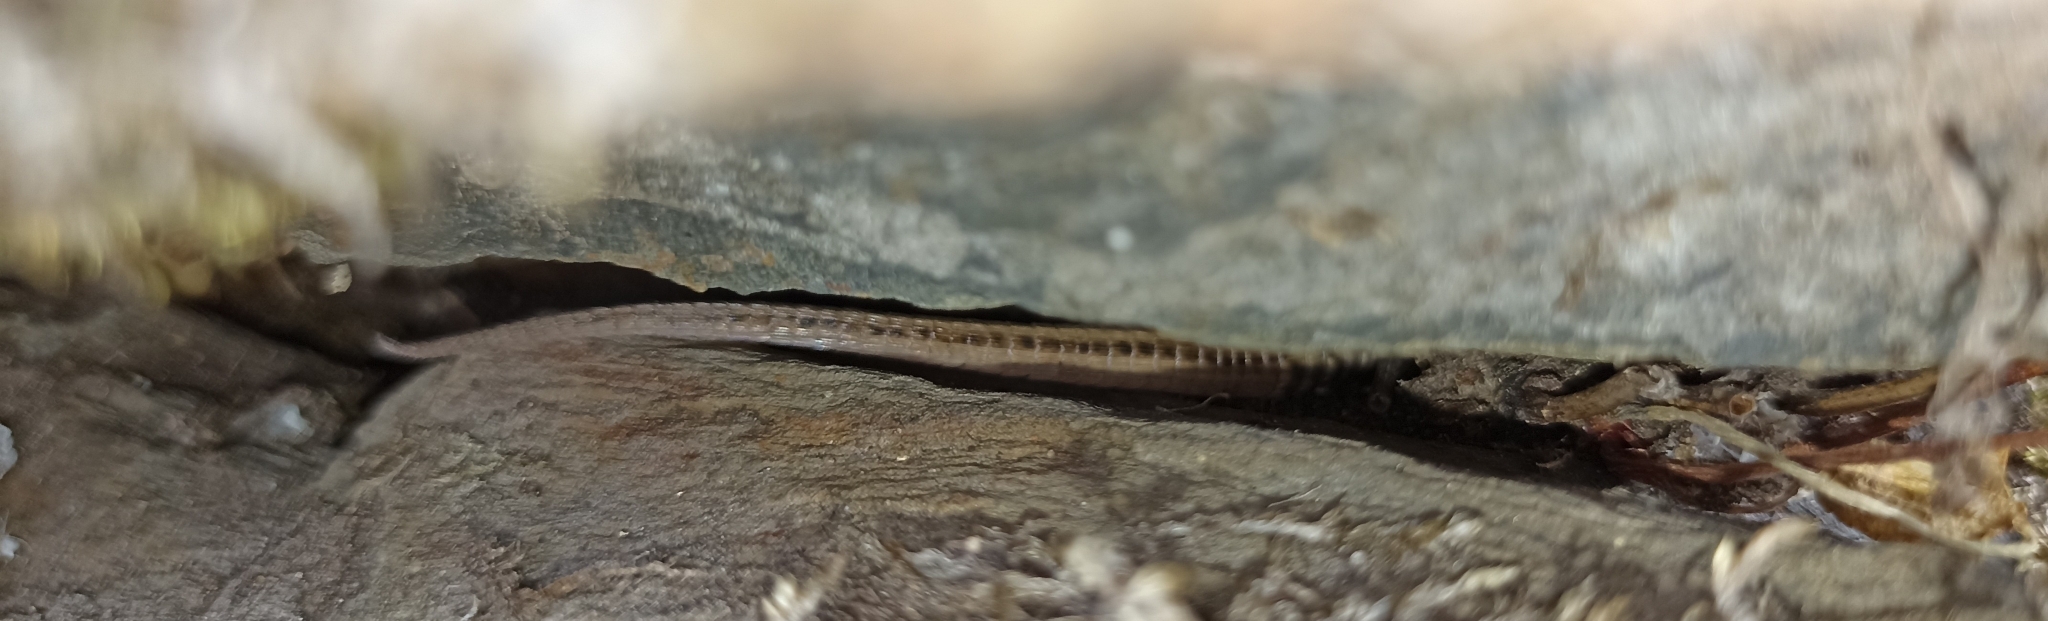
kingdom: Animalia
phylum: Chordata
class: Squamata
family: Lacertidae
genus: Podarcis
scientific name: Podarcis muralis
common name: Common wall lizard
